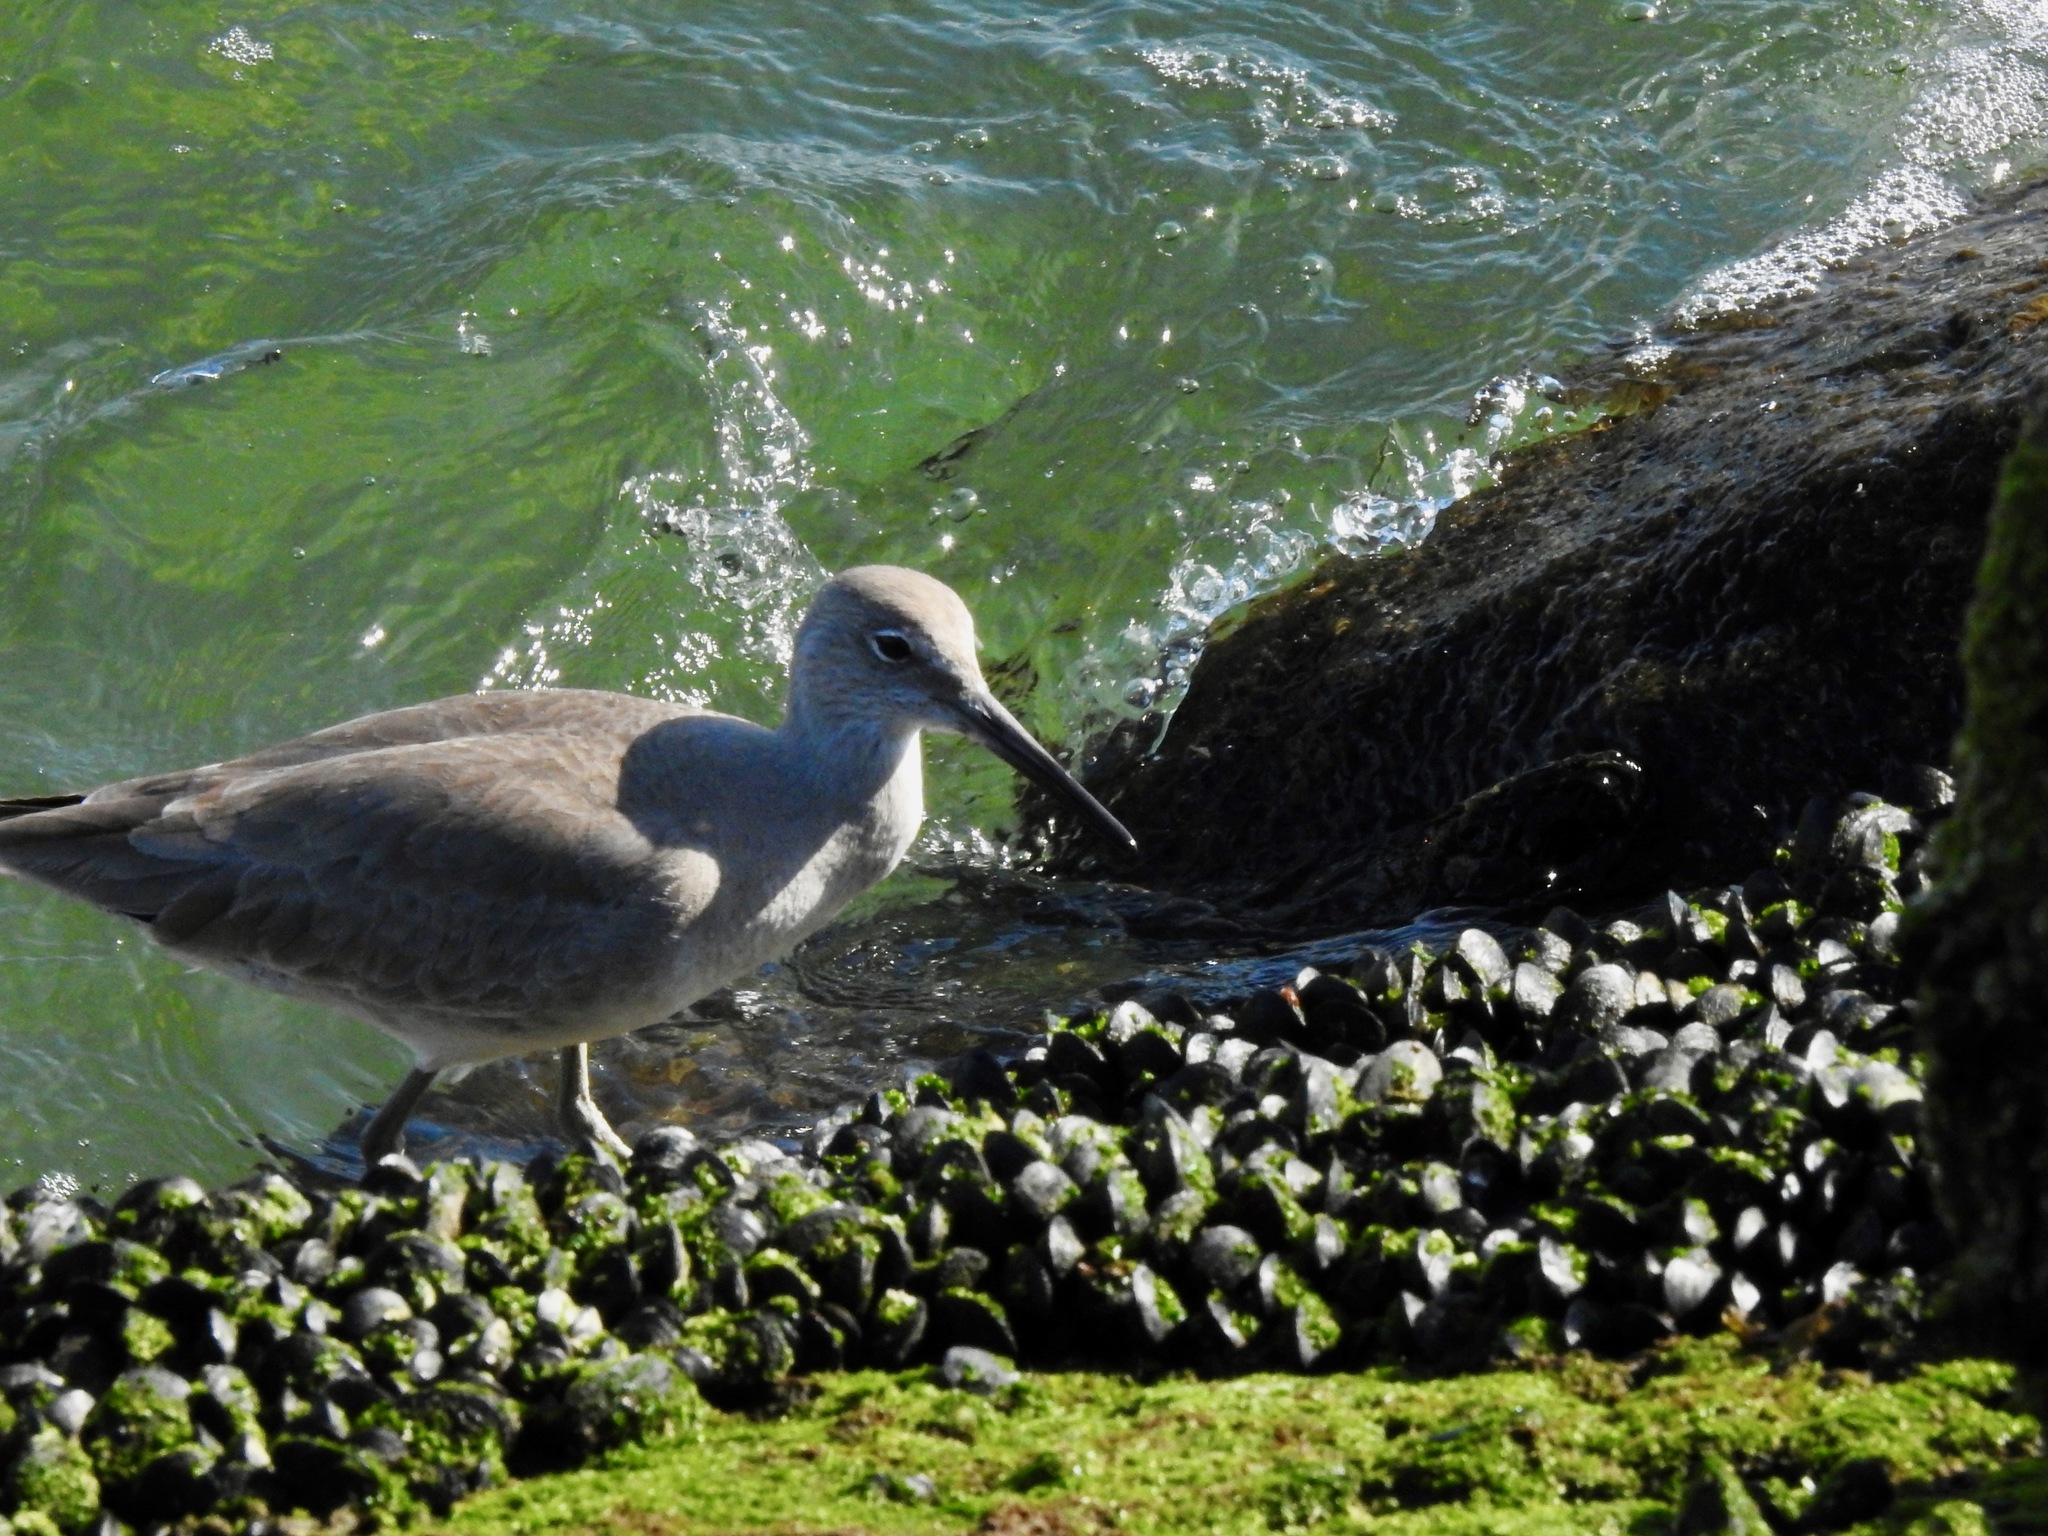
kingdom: Animalia
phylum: Chordata
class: Aves
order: Charadriiformes
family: Scolopacidae
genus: Tringa
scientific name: Tringa semipalmata
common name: Willet
